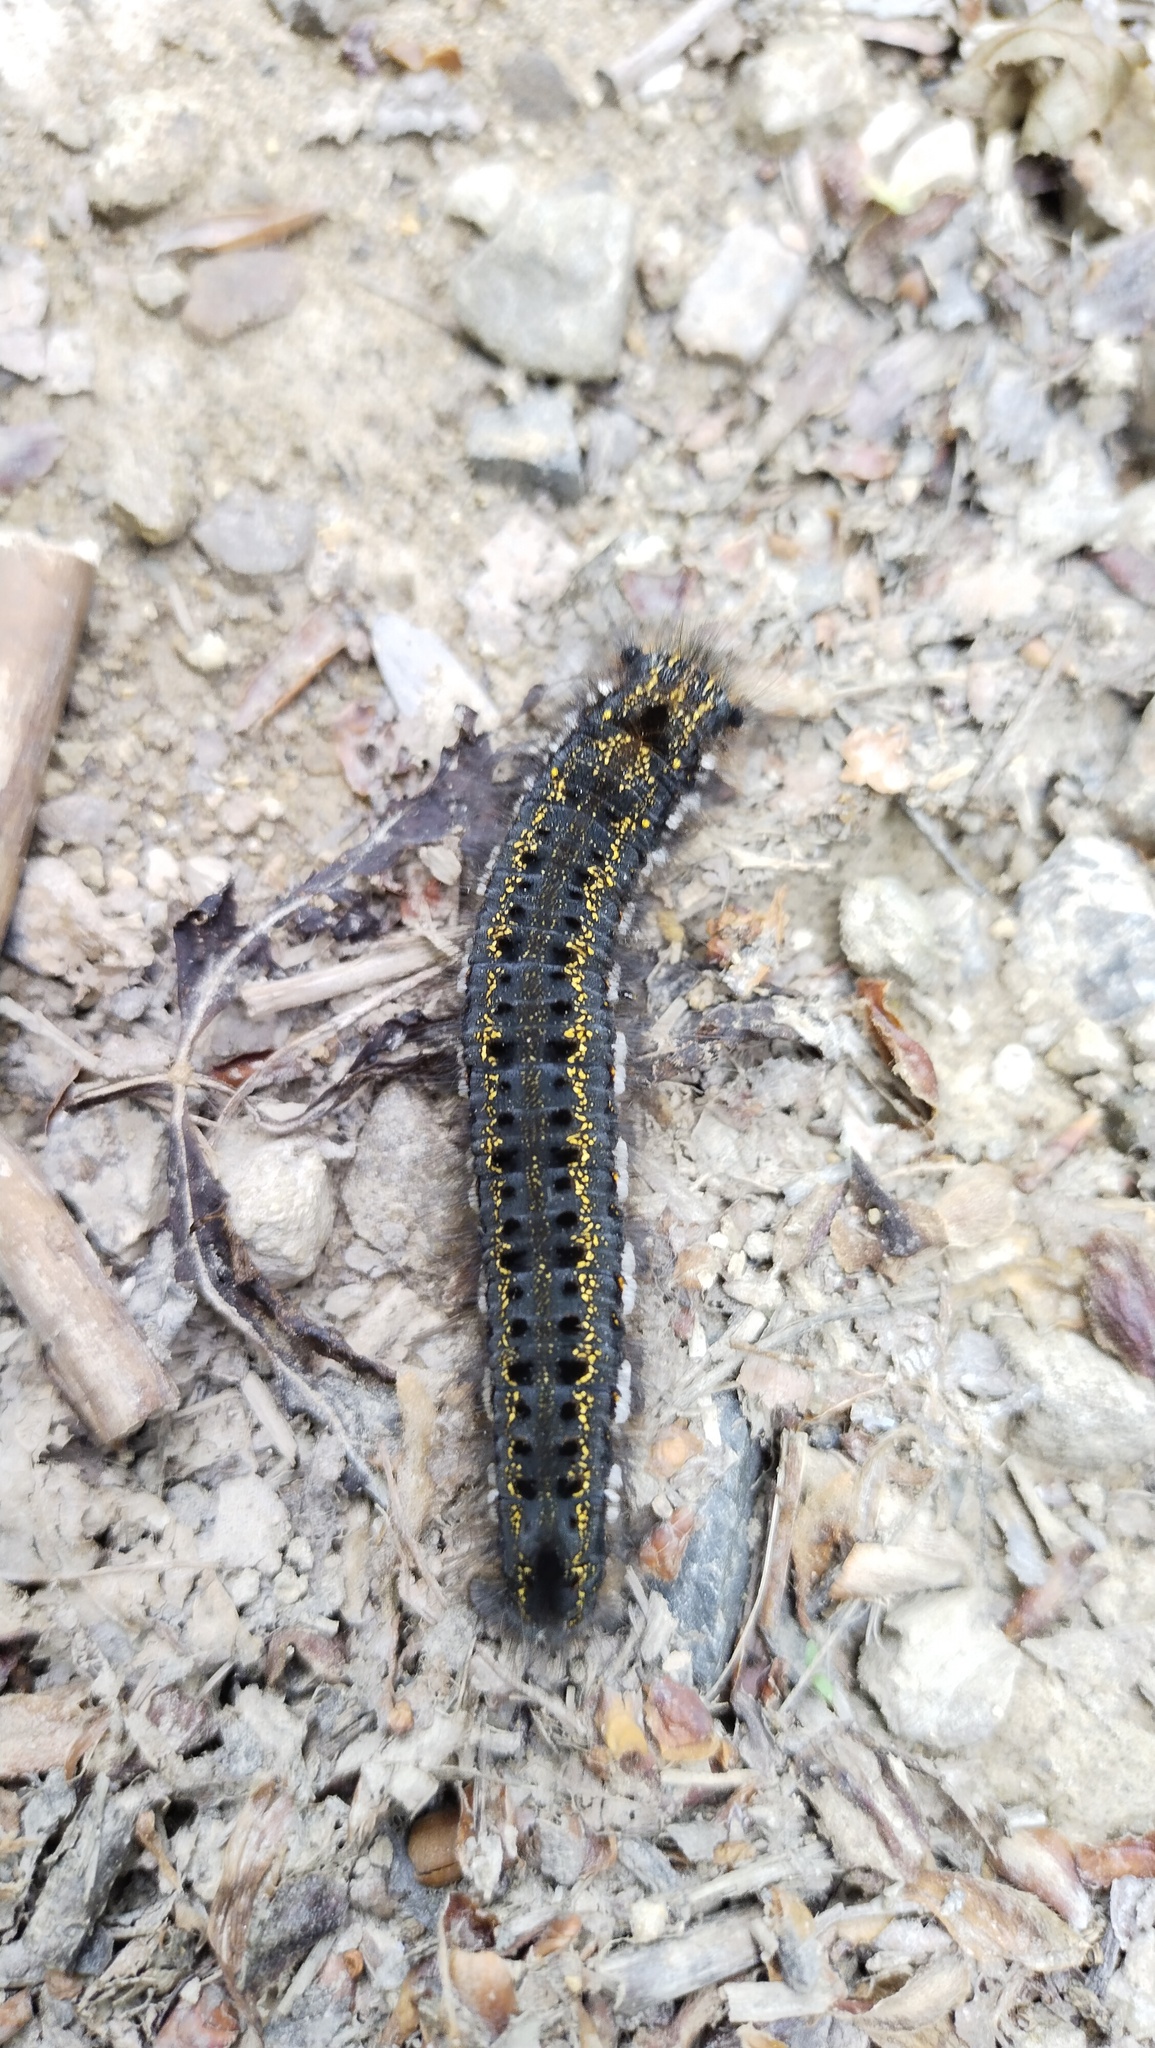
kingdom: Animalia
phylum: Arthropoda
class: Insecta
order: Lepidoptera
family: Lasiocampidae
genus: Euthrix
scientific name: Euthrix potatoria
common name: Drinker
